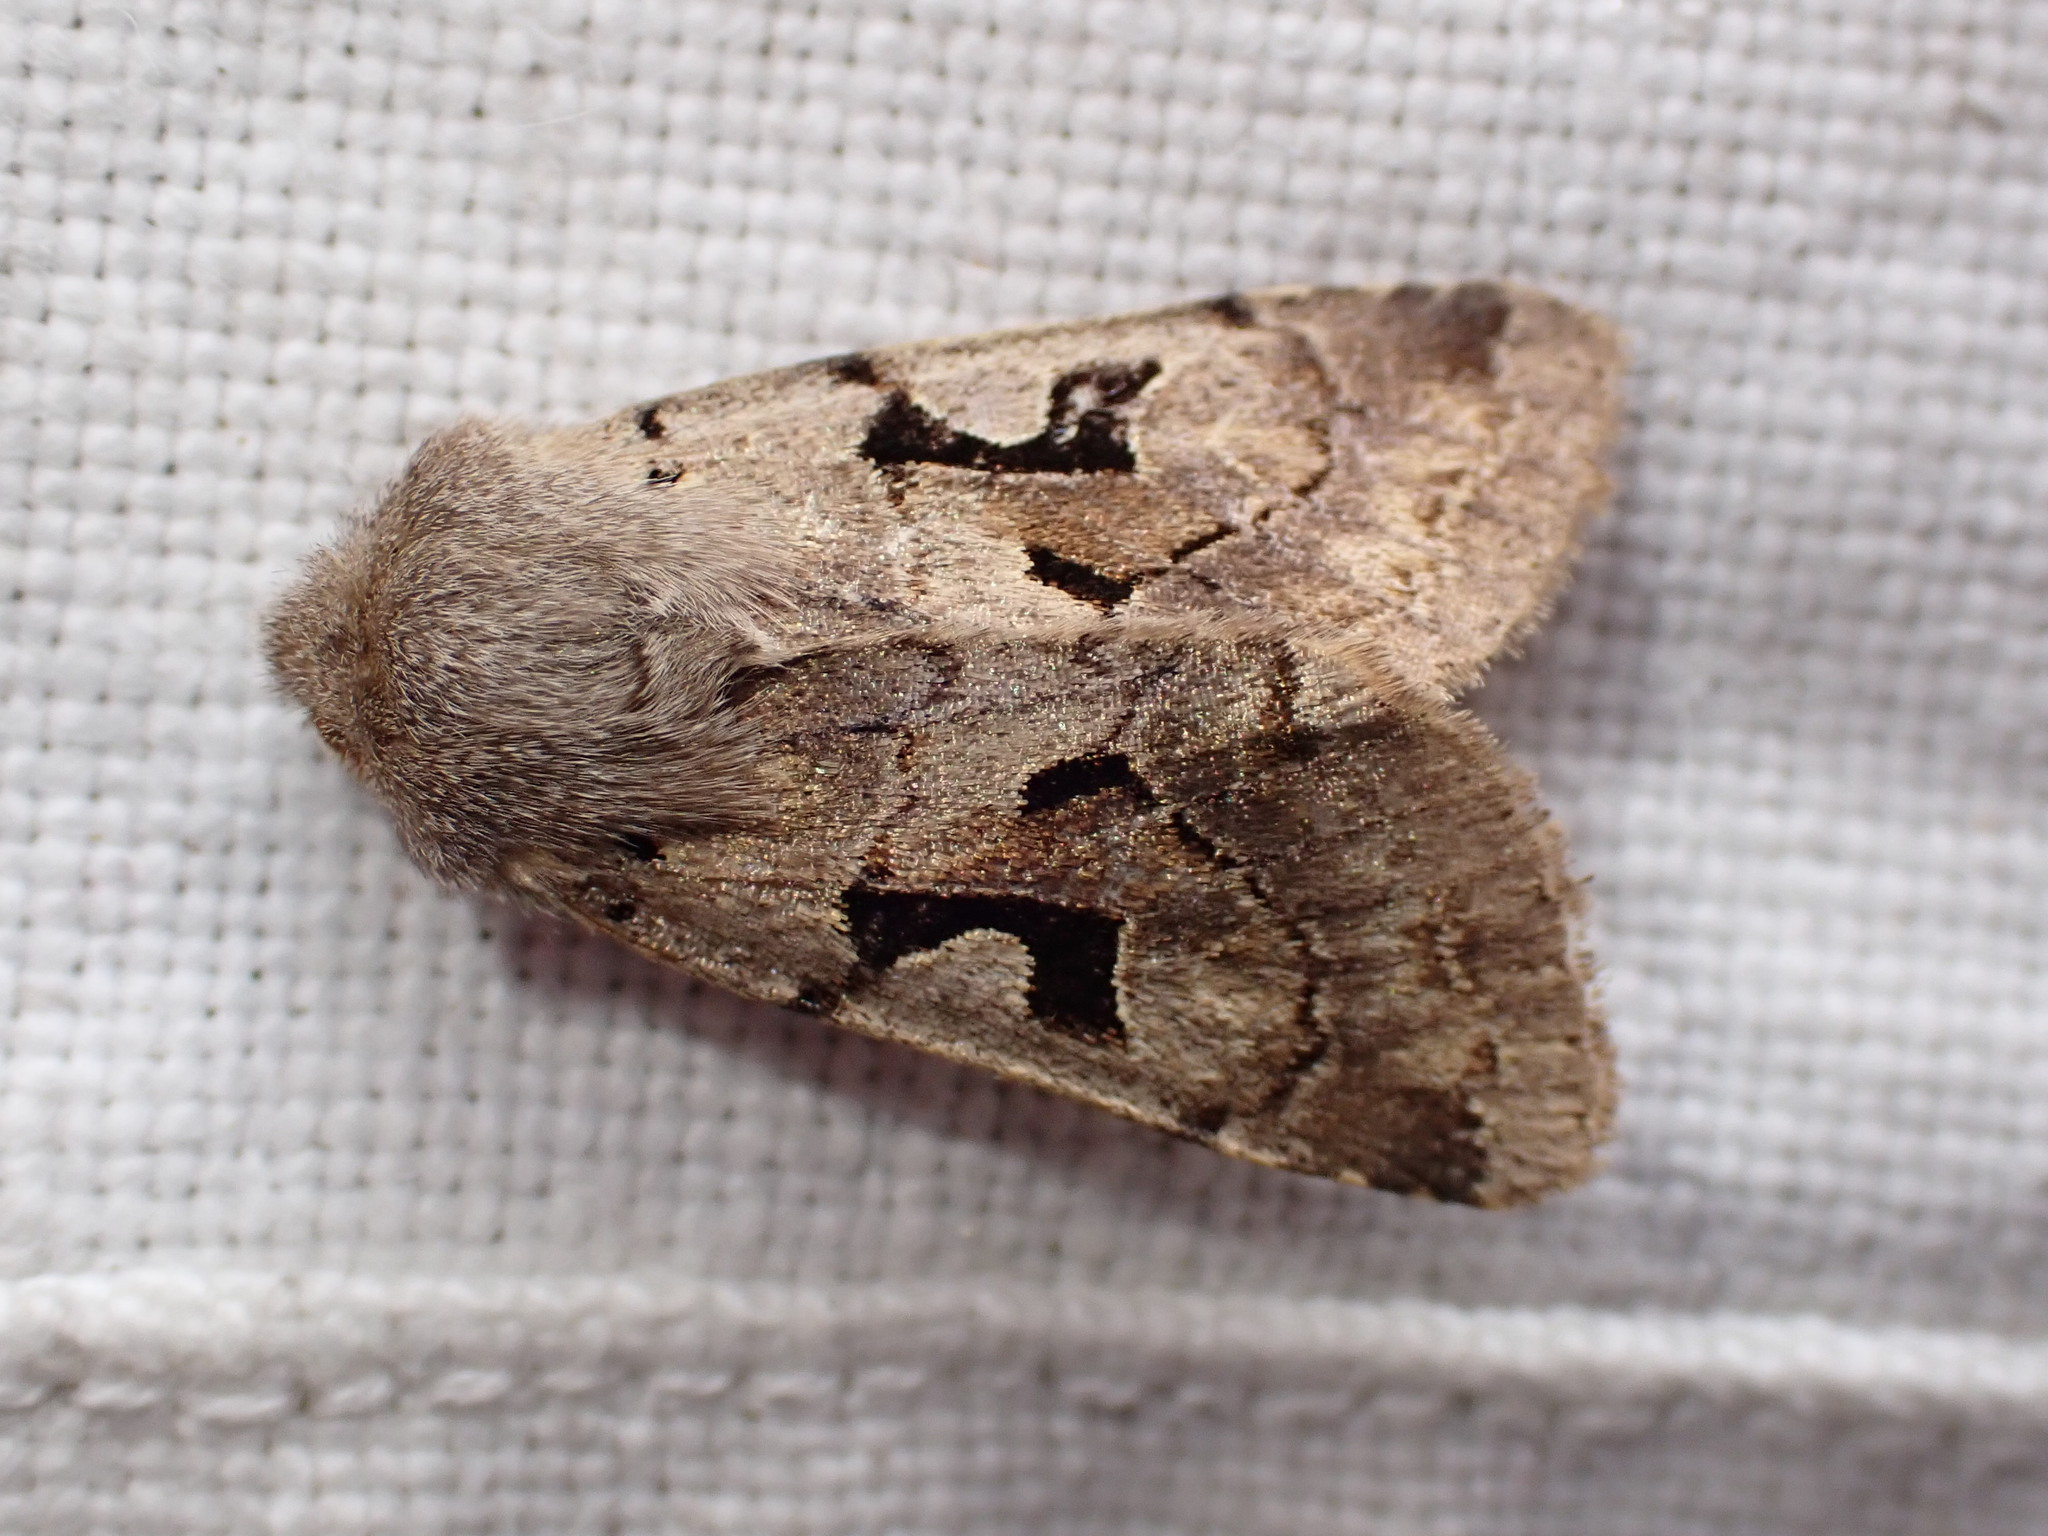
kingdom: Animalia
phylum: Arthropoda
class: Insecta
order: Lepidoptera
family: Noctuidae
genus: Orthosia
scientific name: Orthosia gothica
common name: Hebrew character
